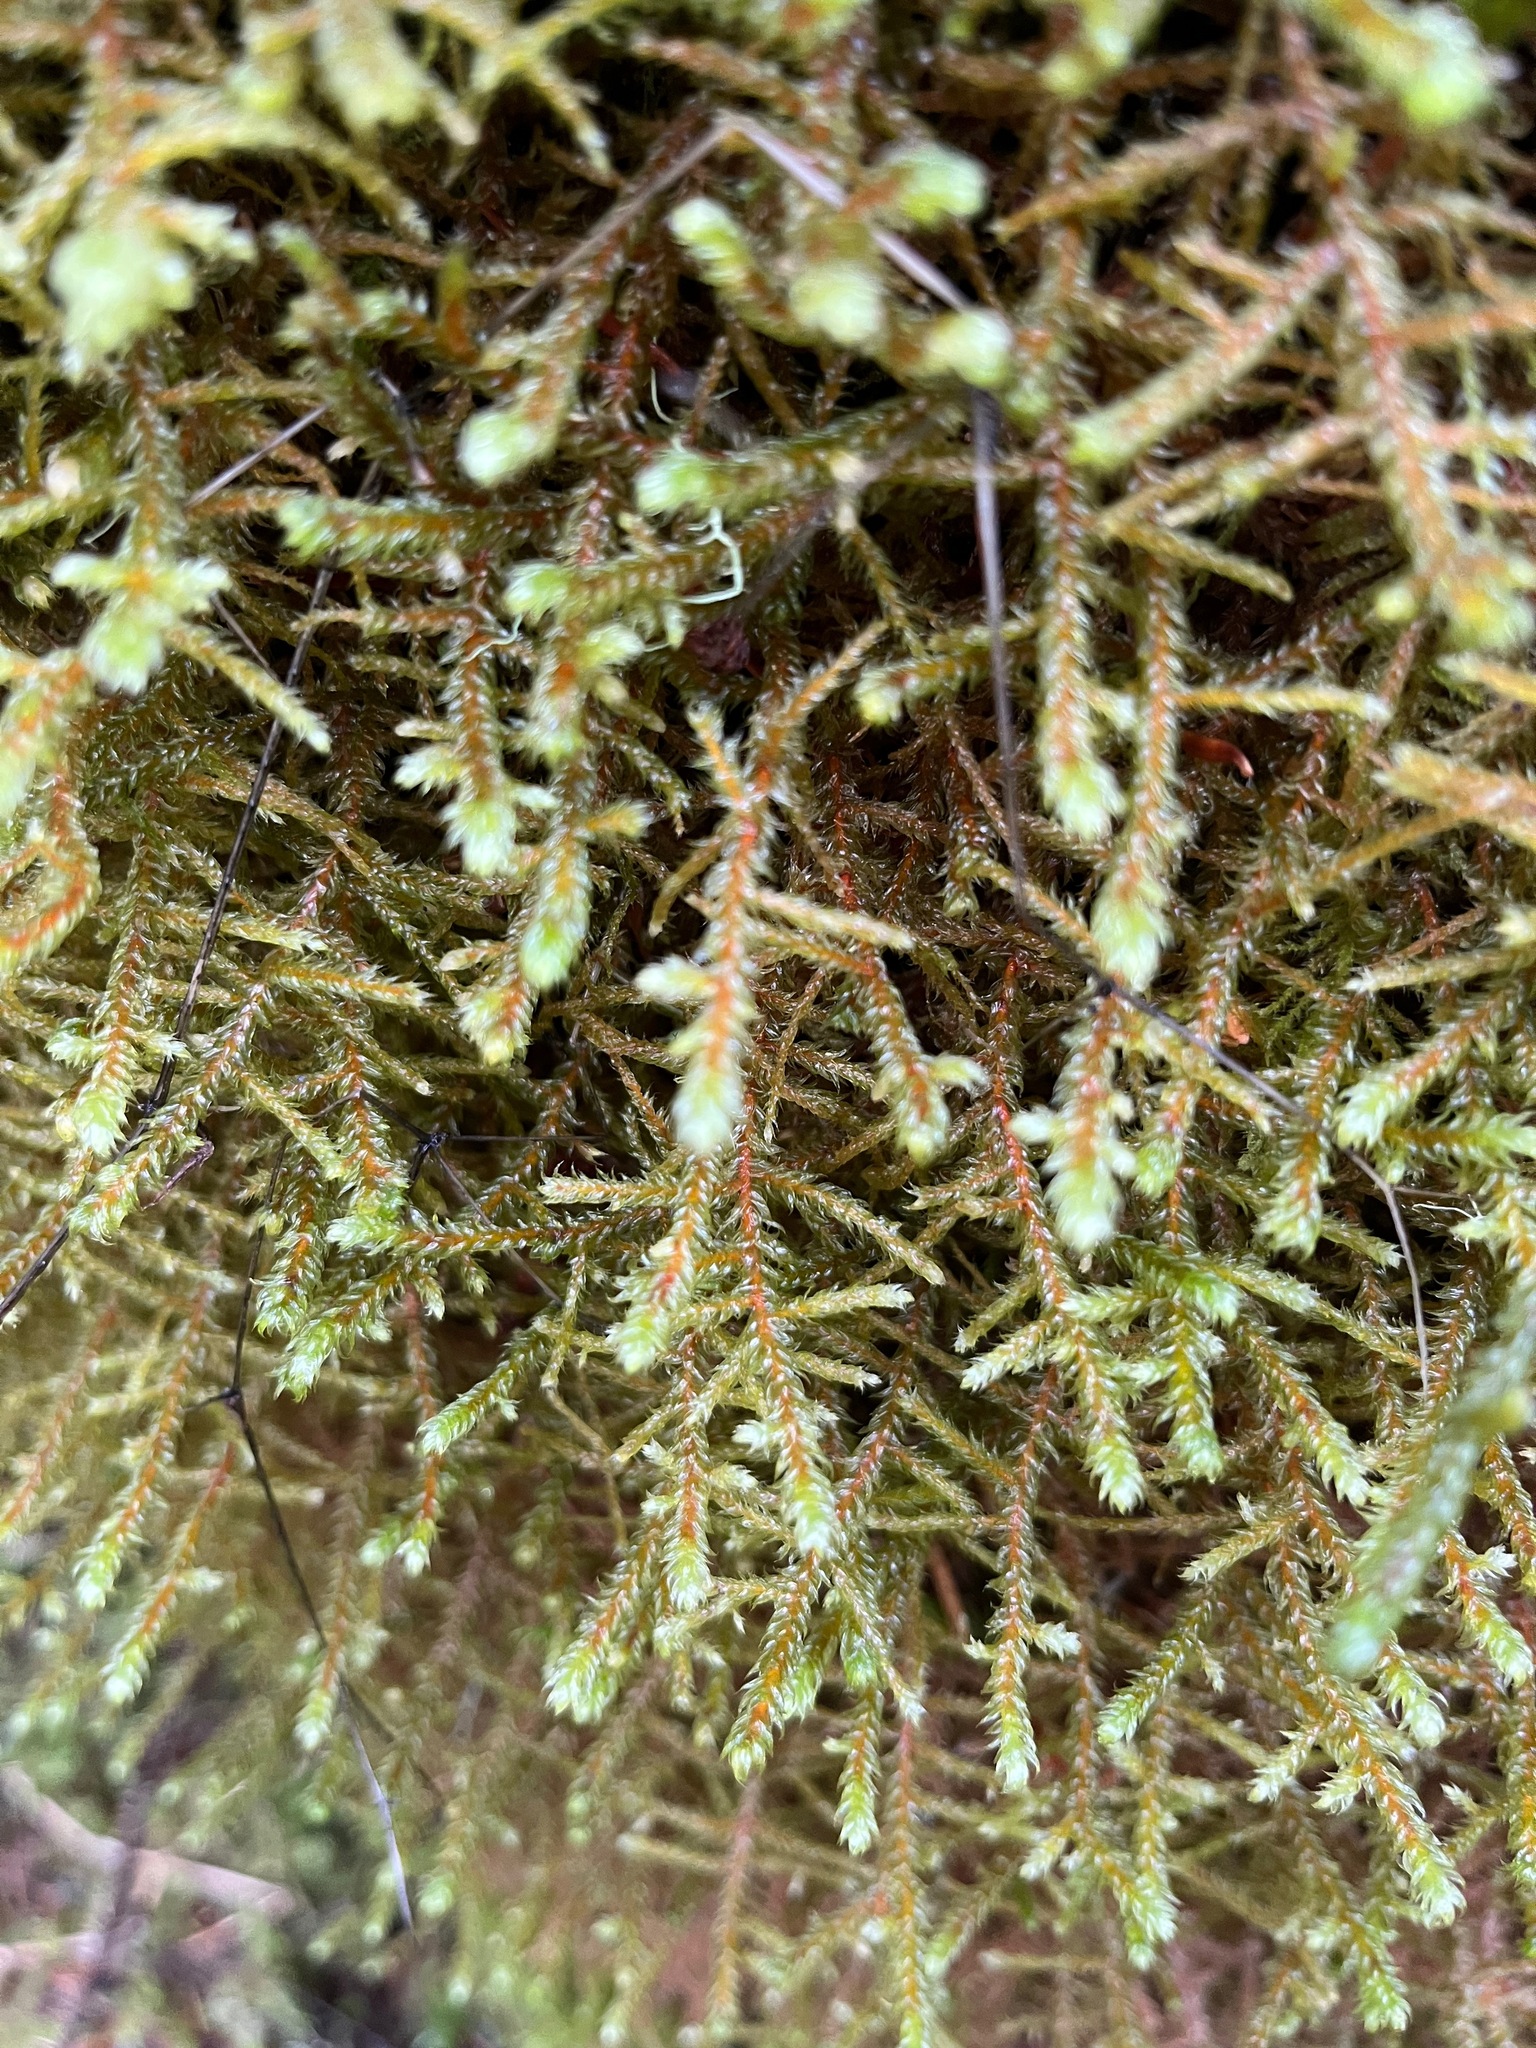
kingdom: Plantae
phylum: Bryophyta
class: Bryopsida
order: Hypnales
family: Antitrichiaceae
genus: Antitrichia
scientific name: Antitrichia curtipendula
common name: Pendulous wing-moss
